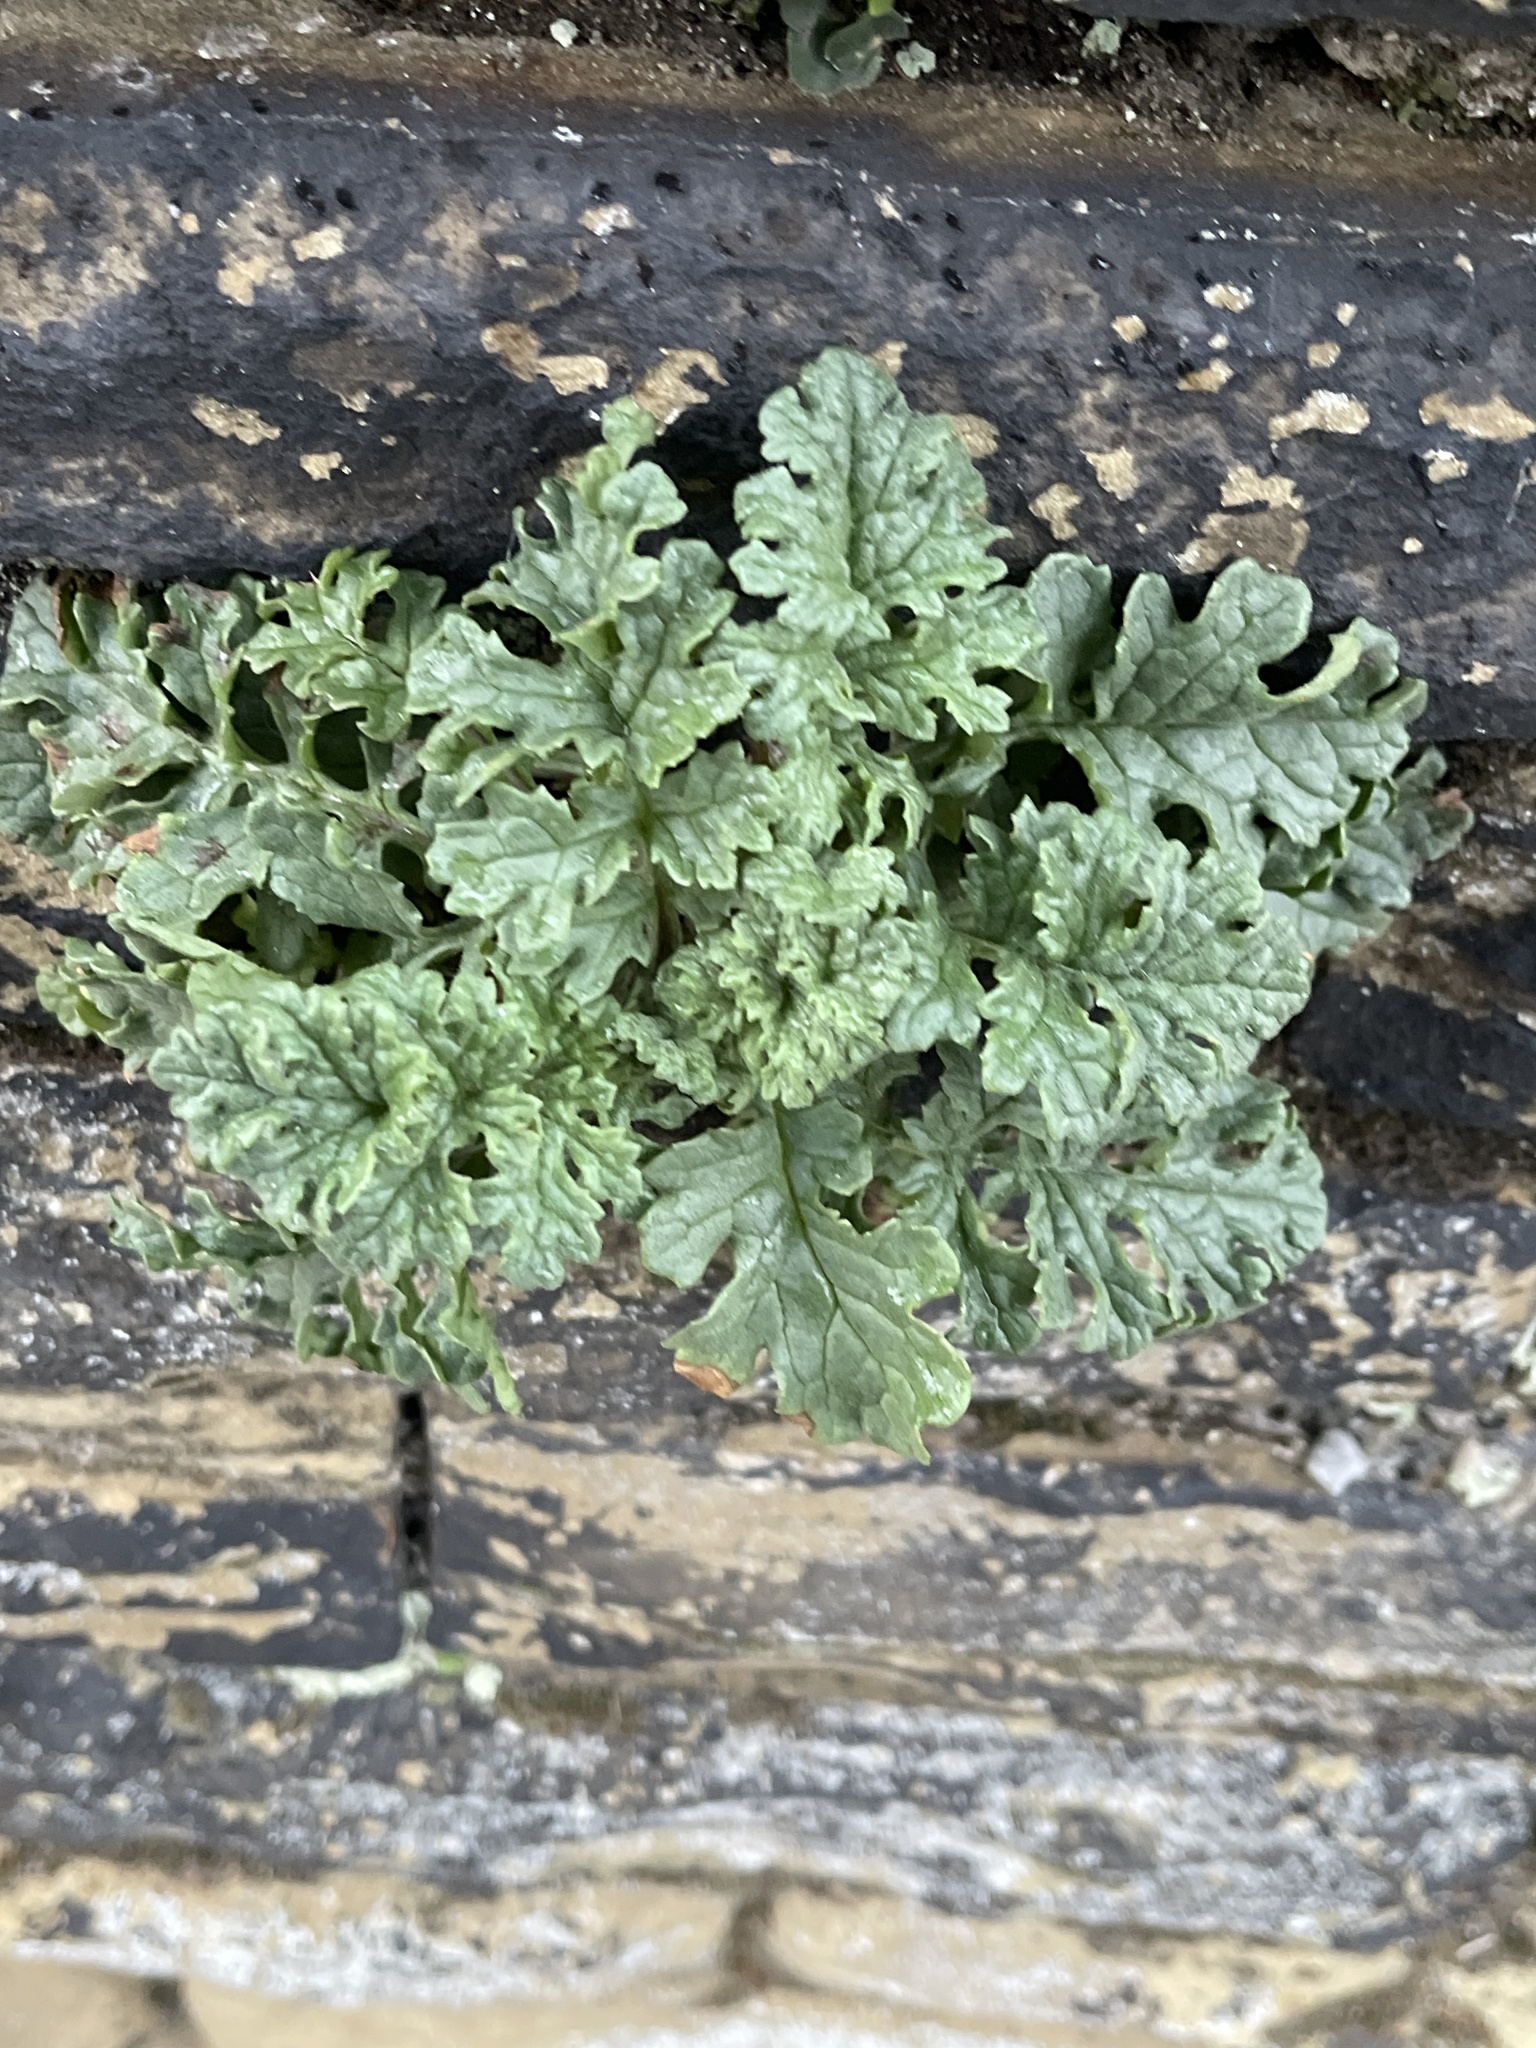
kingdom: Plantae
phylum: Tracheophyta
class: Magnoliopsida
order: Asterales
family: Asteraceae
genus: Jacobaea
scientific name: Jacobaea vulgaris
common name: Stinking willie
